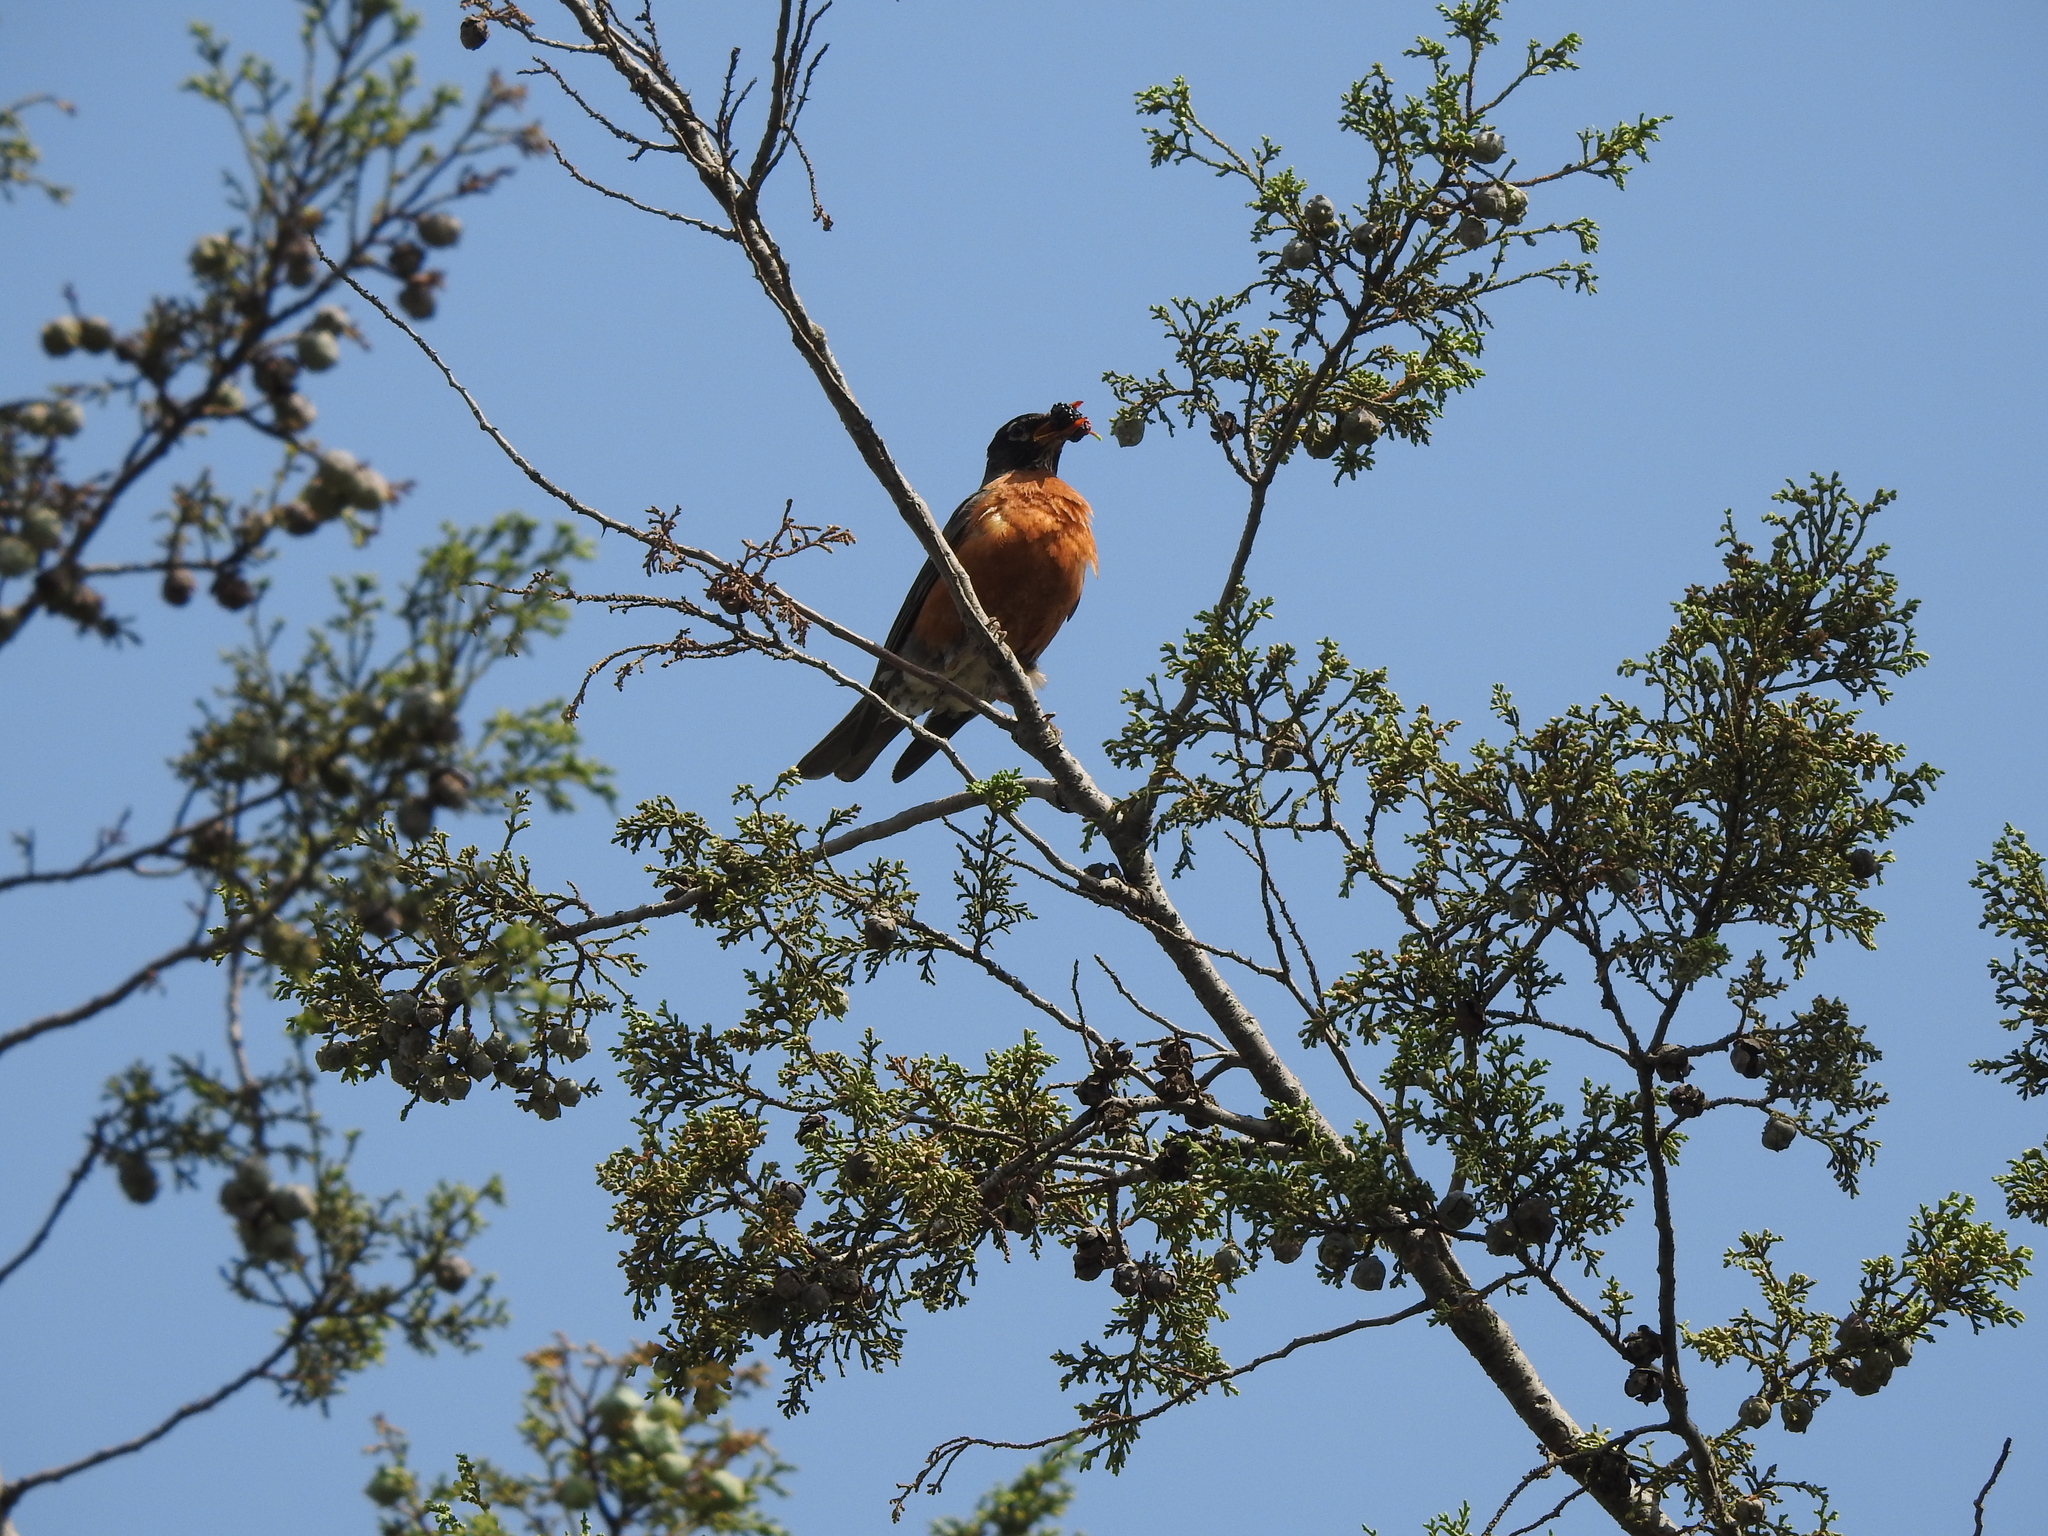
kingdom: Animalia
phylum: Chordata
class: Aves
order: Passeriformes
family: Turdidae
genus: Turdus
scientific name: Turdus migratorius
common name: American robin
